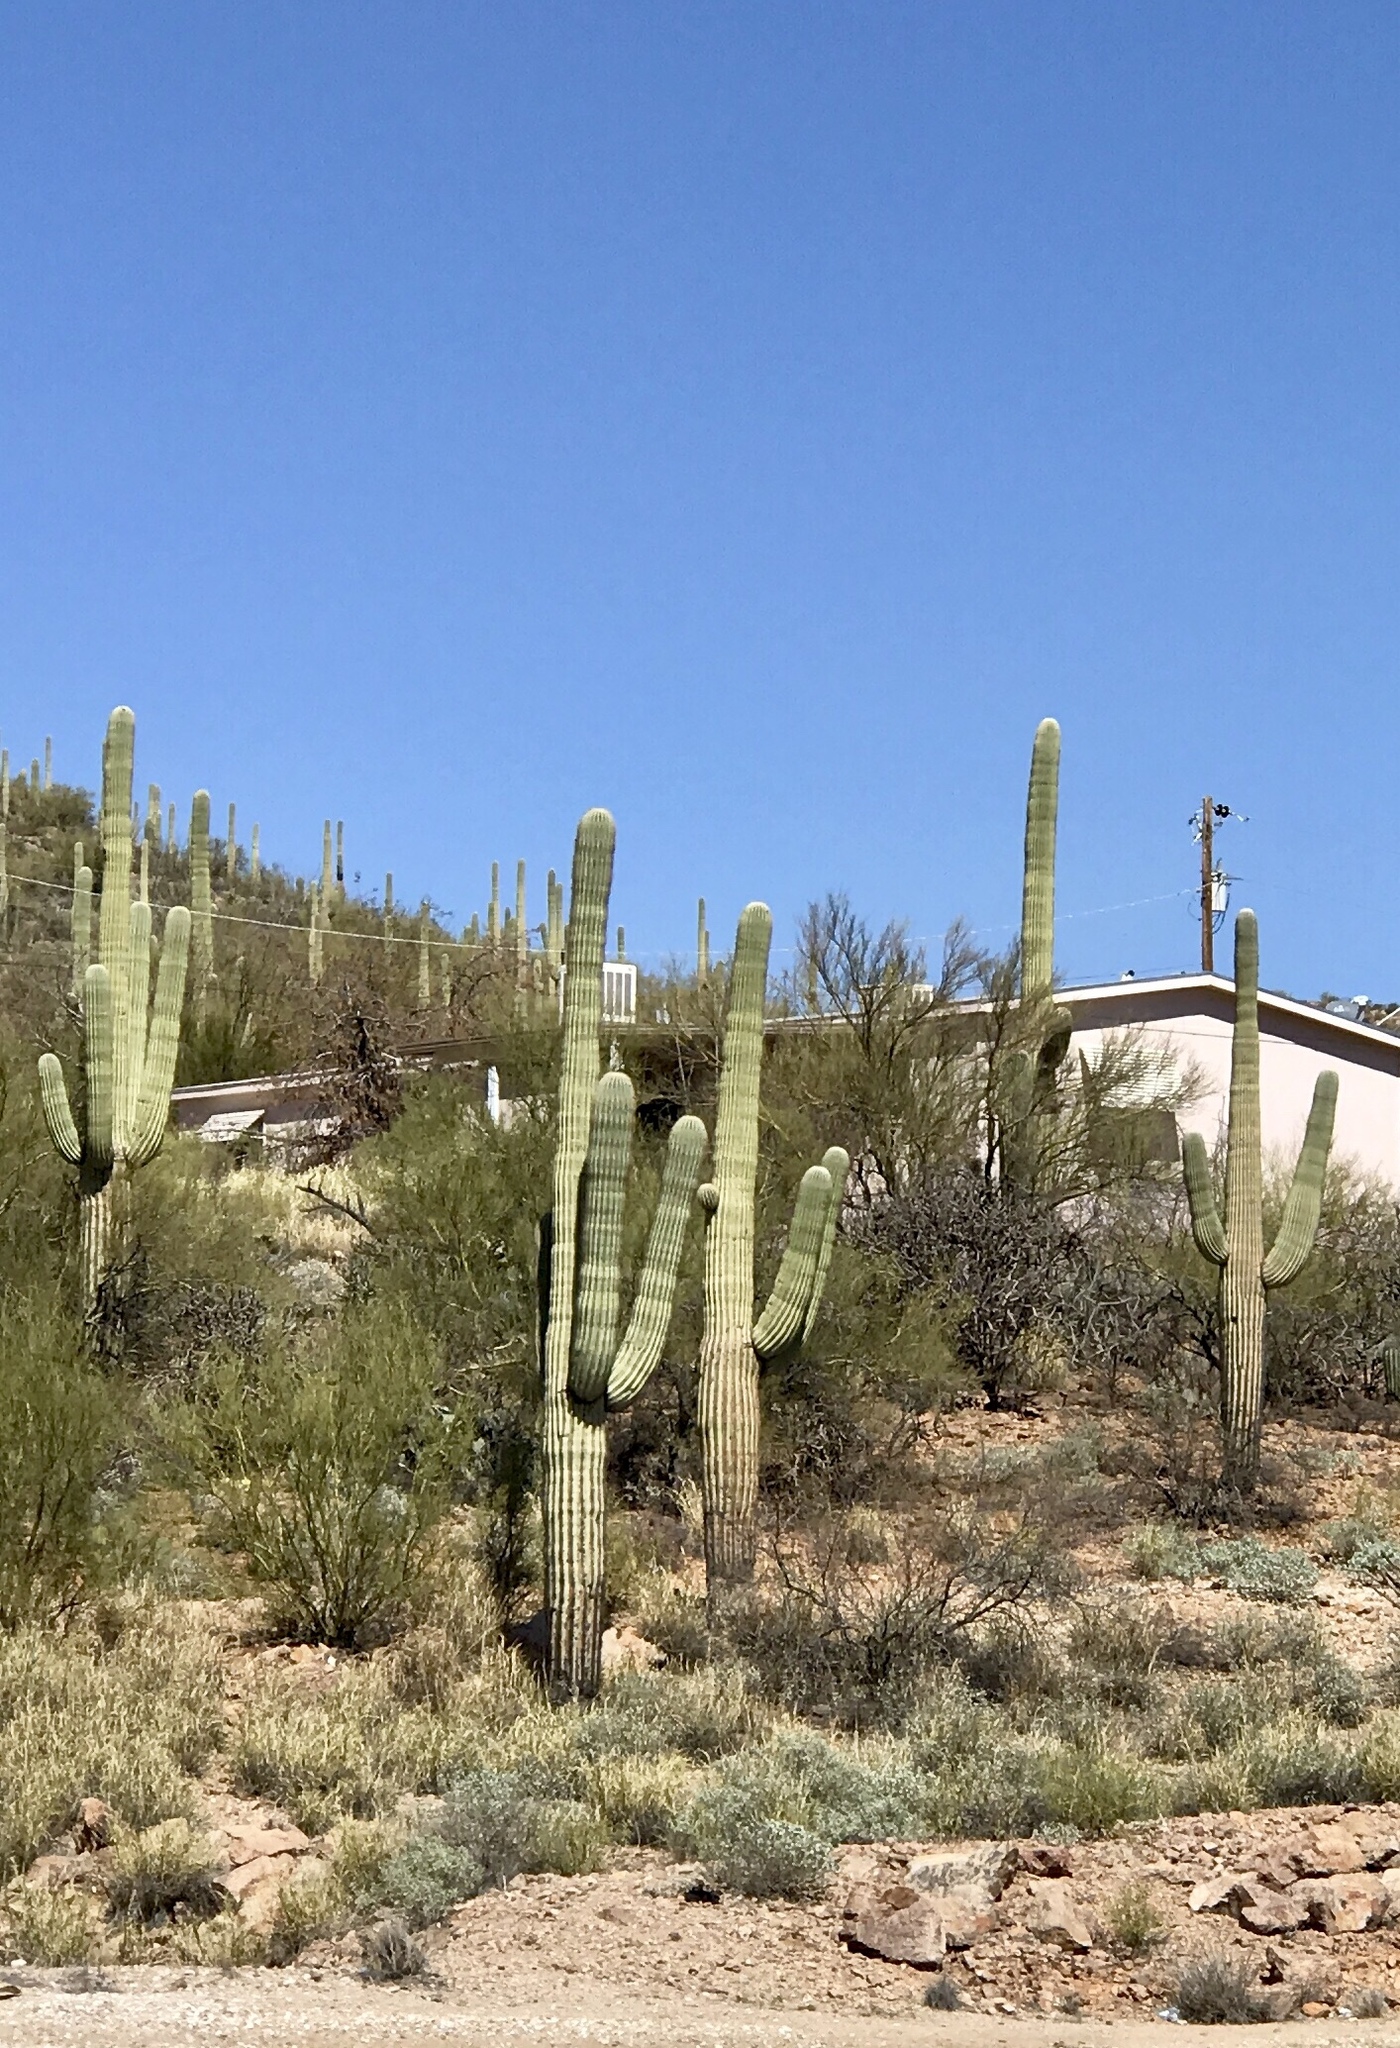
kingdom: Plantae
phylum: Tracheophyta
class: Magnoliopsida
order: Caryophyllales
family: Cactaceae
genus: Carnegiea
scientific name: Carnegiea gigantea
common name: Saguaro
